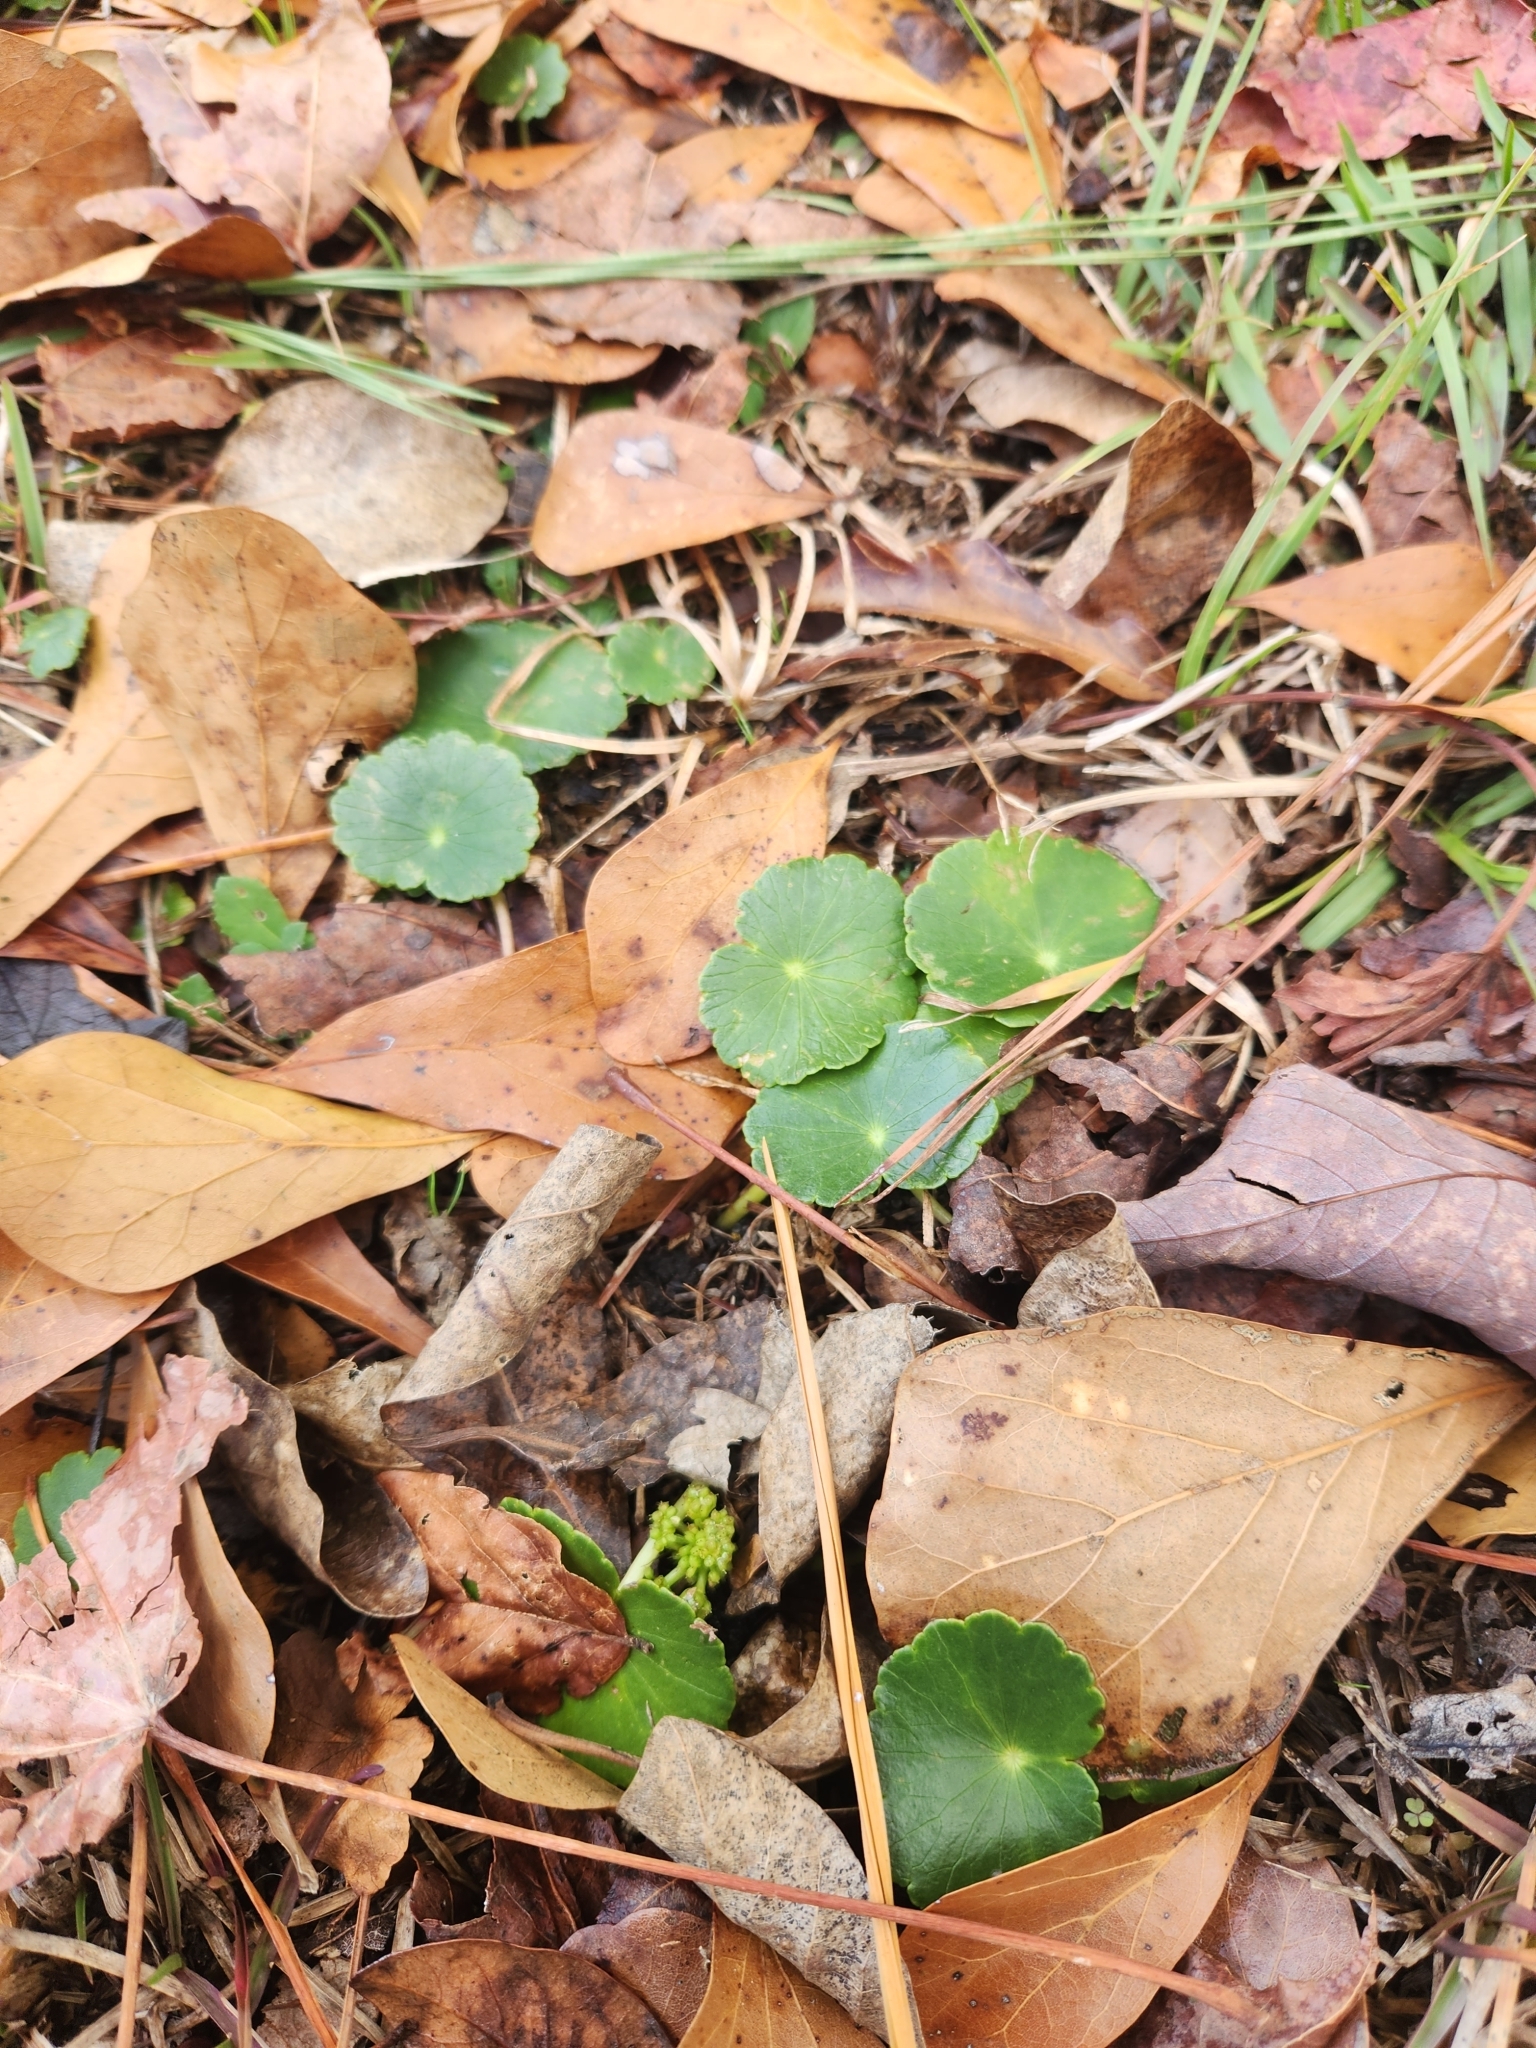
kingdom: Plantae
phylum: Tracheophyta
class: Magnoliopsida
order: Apiales
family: Araliaceae
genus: Hydrocotyle
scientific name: Hydrocotyle bonariensis
